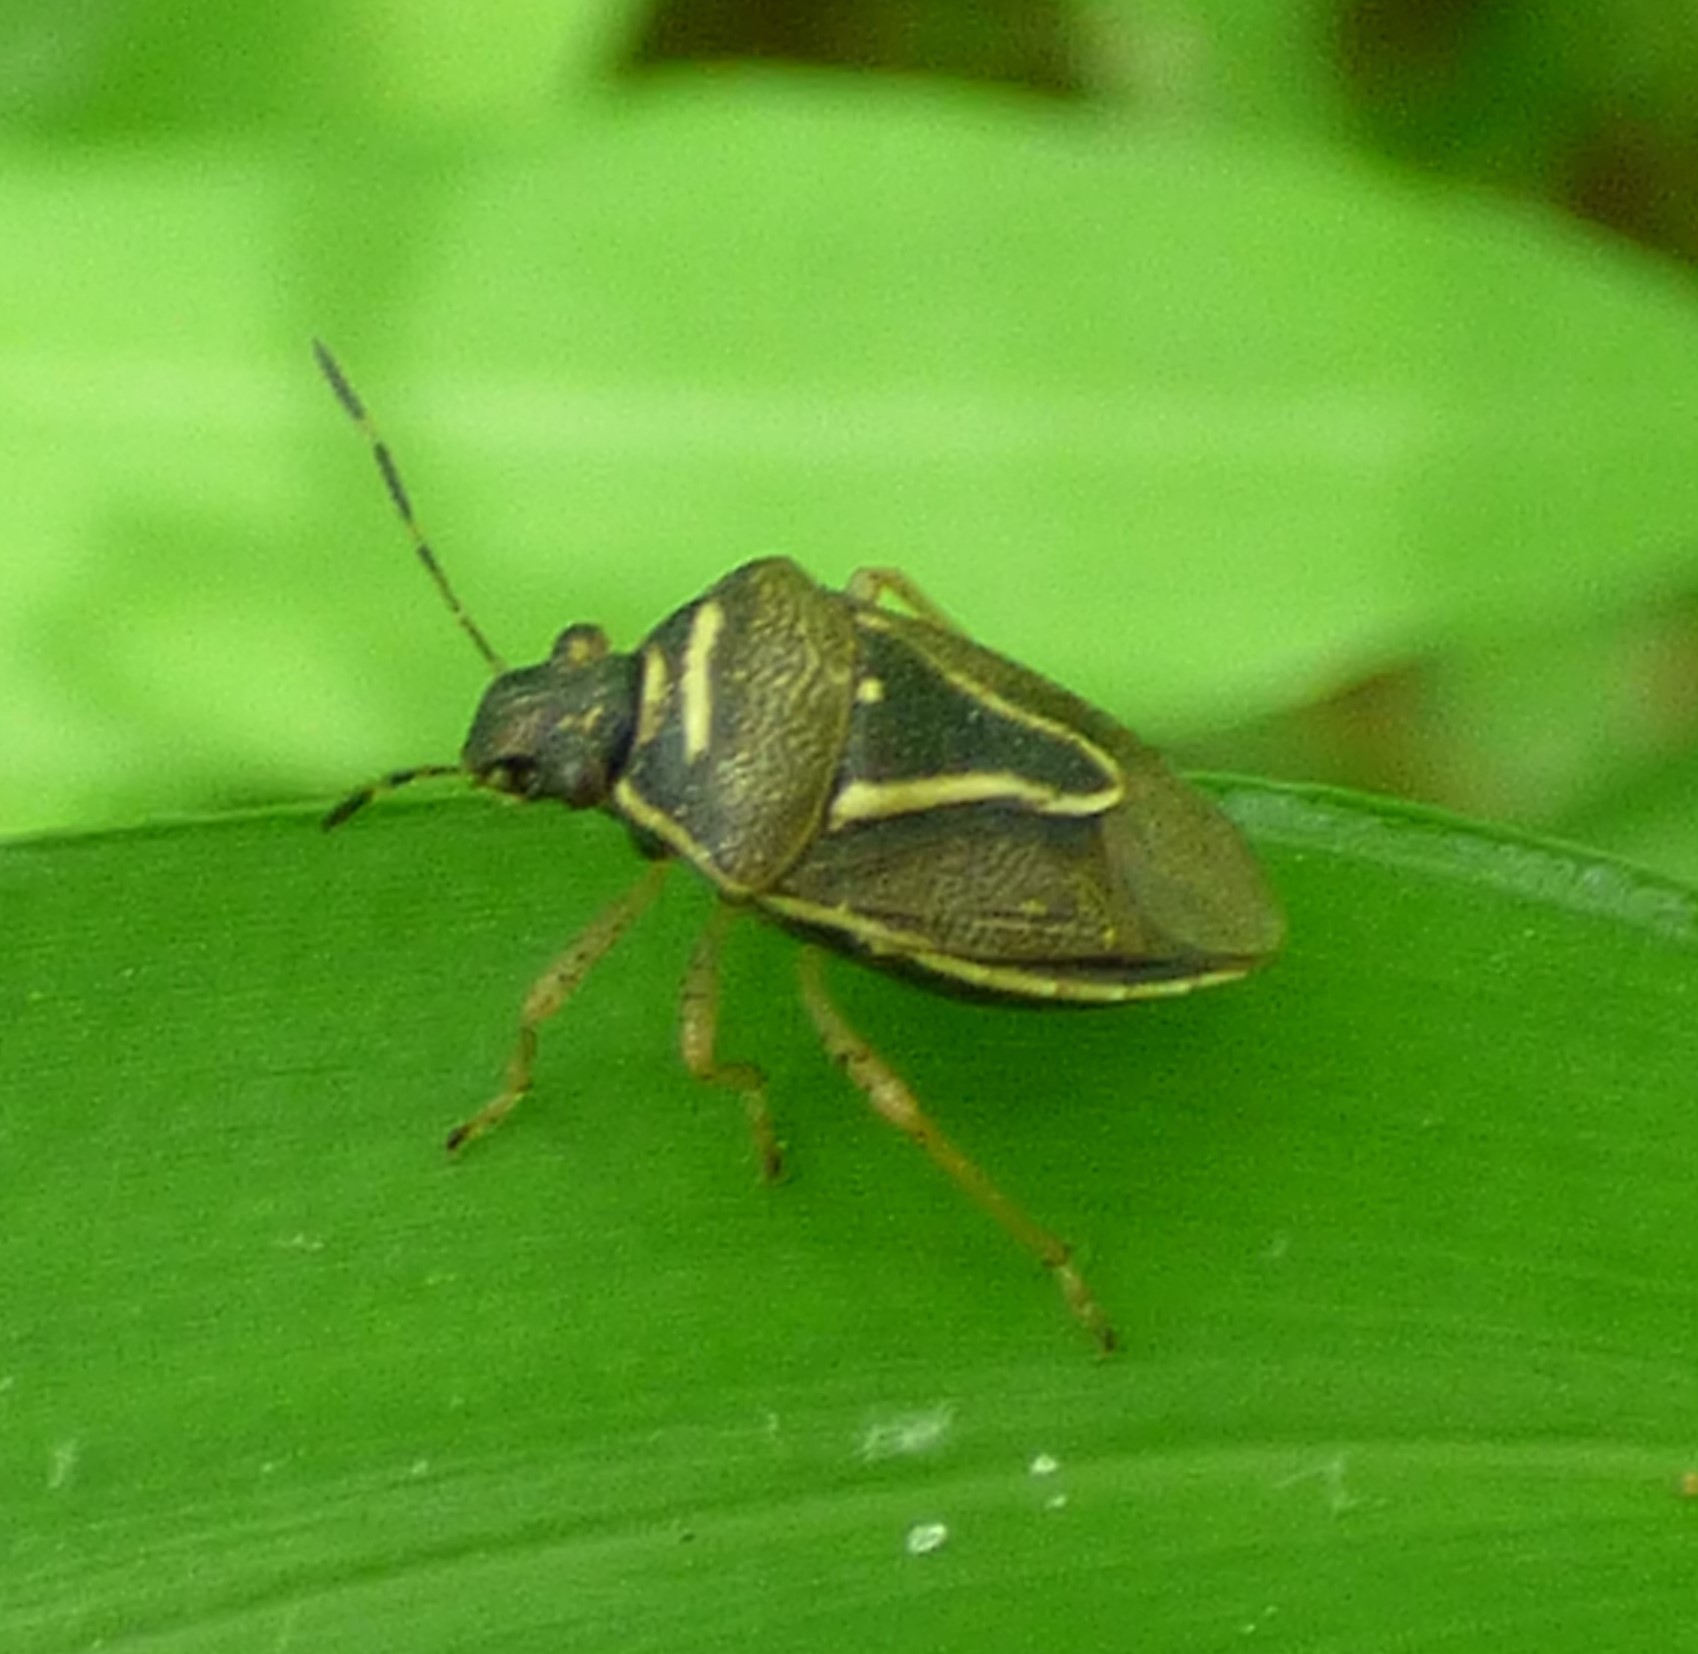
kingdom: Animalia
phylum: Arthropoda
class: Insecta
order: Hemiptera
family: Pentatomidae
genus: Mormidea
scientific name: Mormidea lugens
